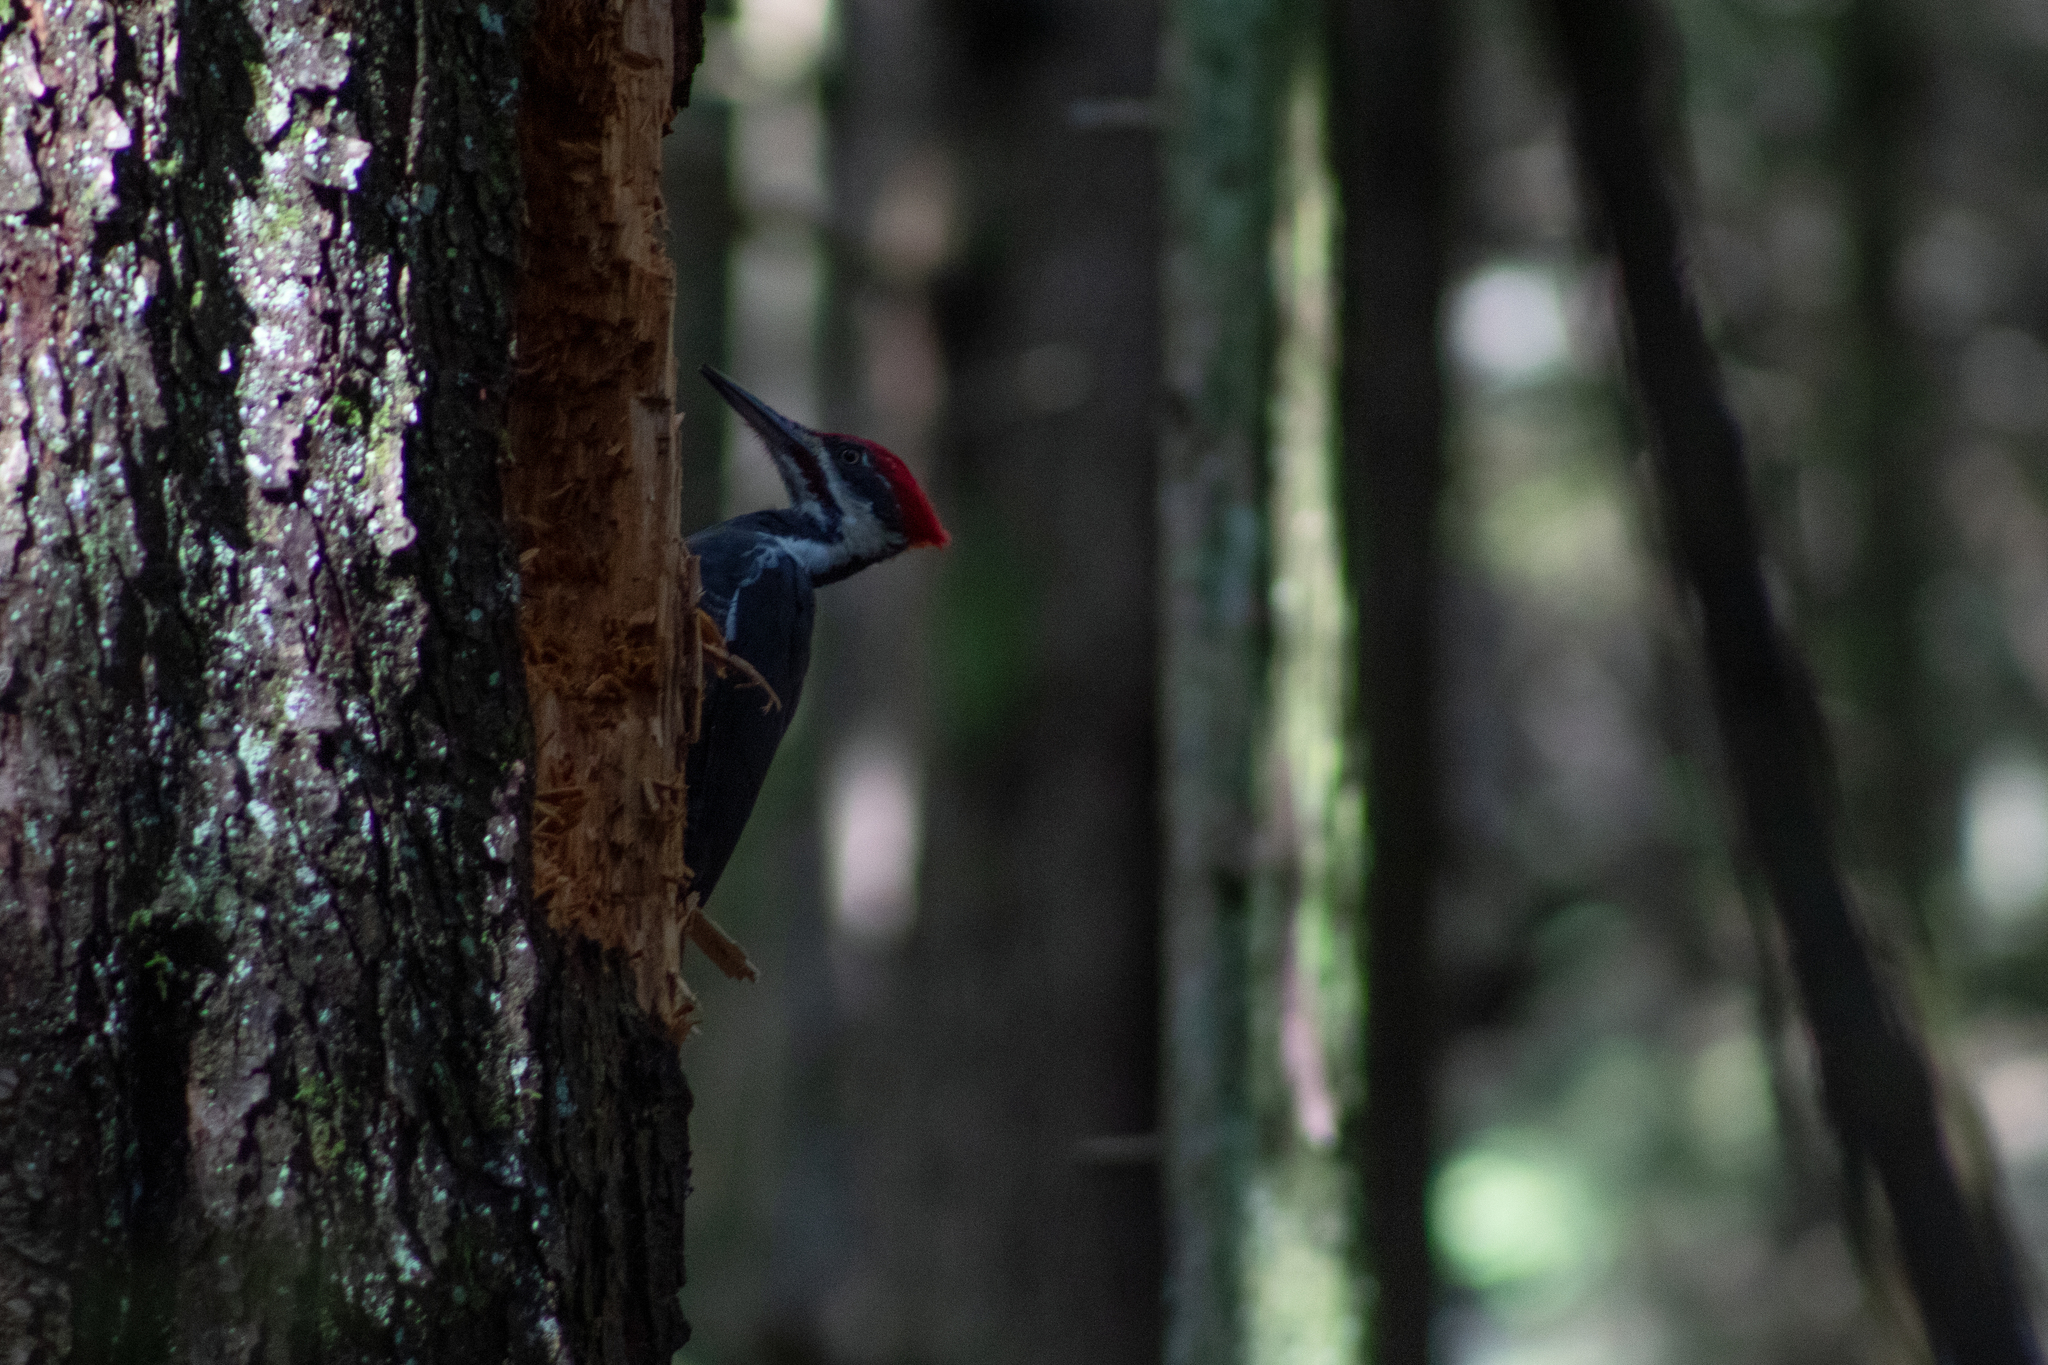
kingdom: Animalia
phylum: Chordata
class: Aves
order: Piciformes
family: Picidae
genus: Dryocopus
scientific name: Dryocopus pileatus
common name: Pileated woodpecker
